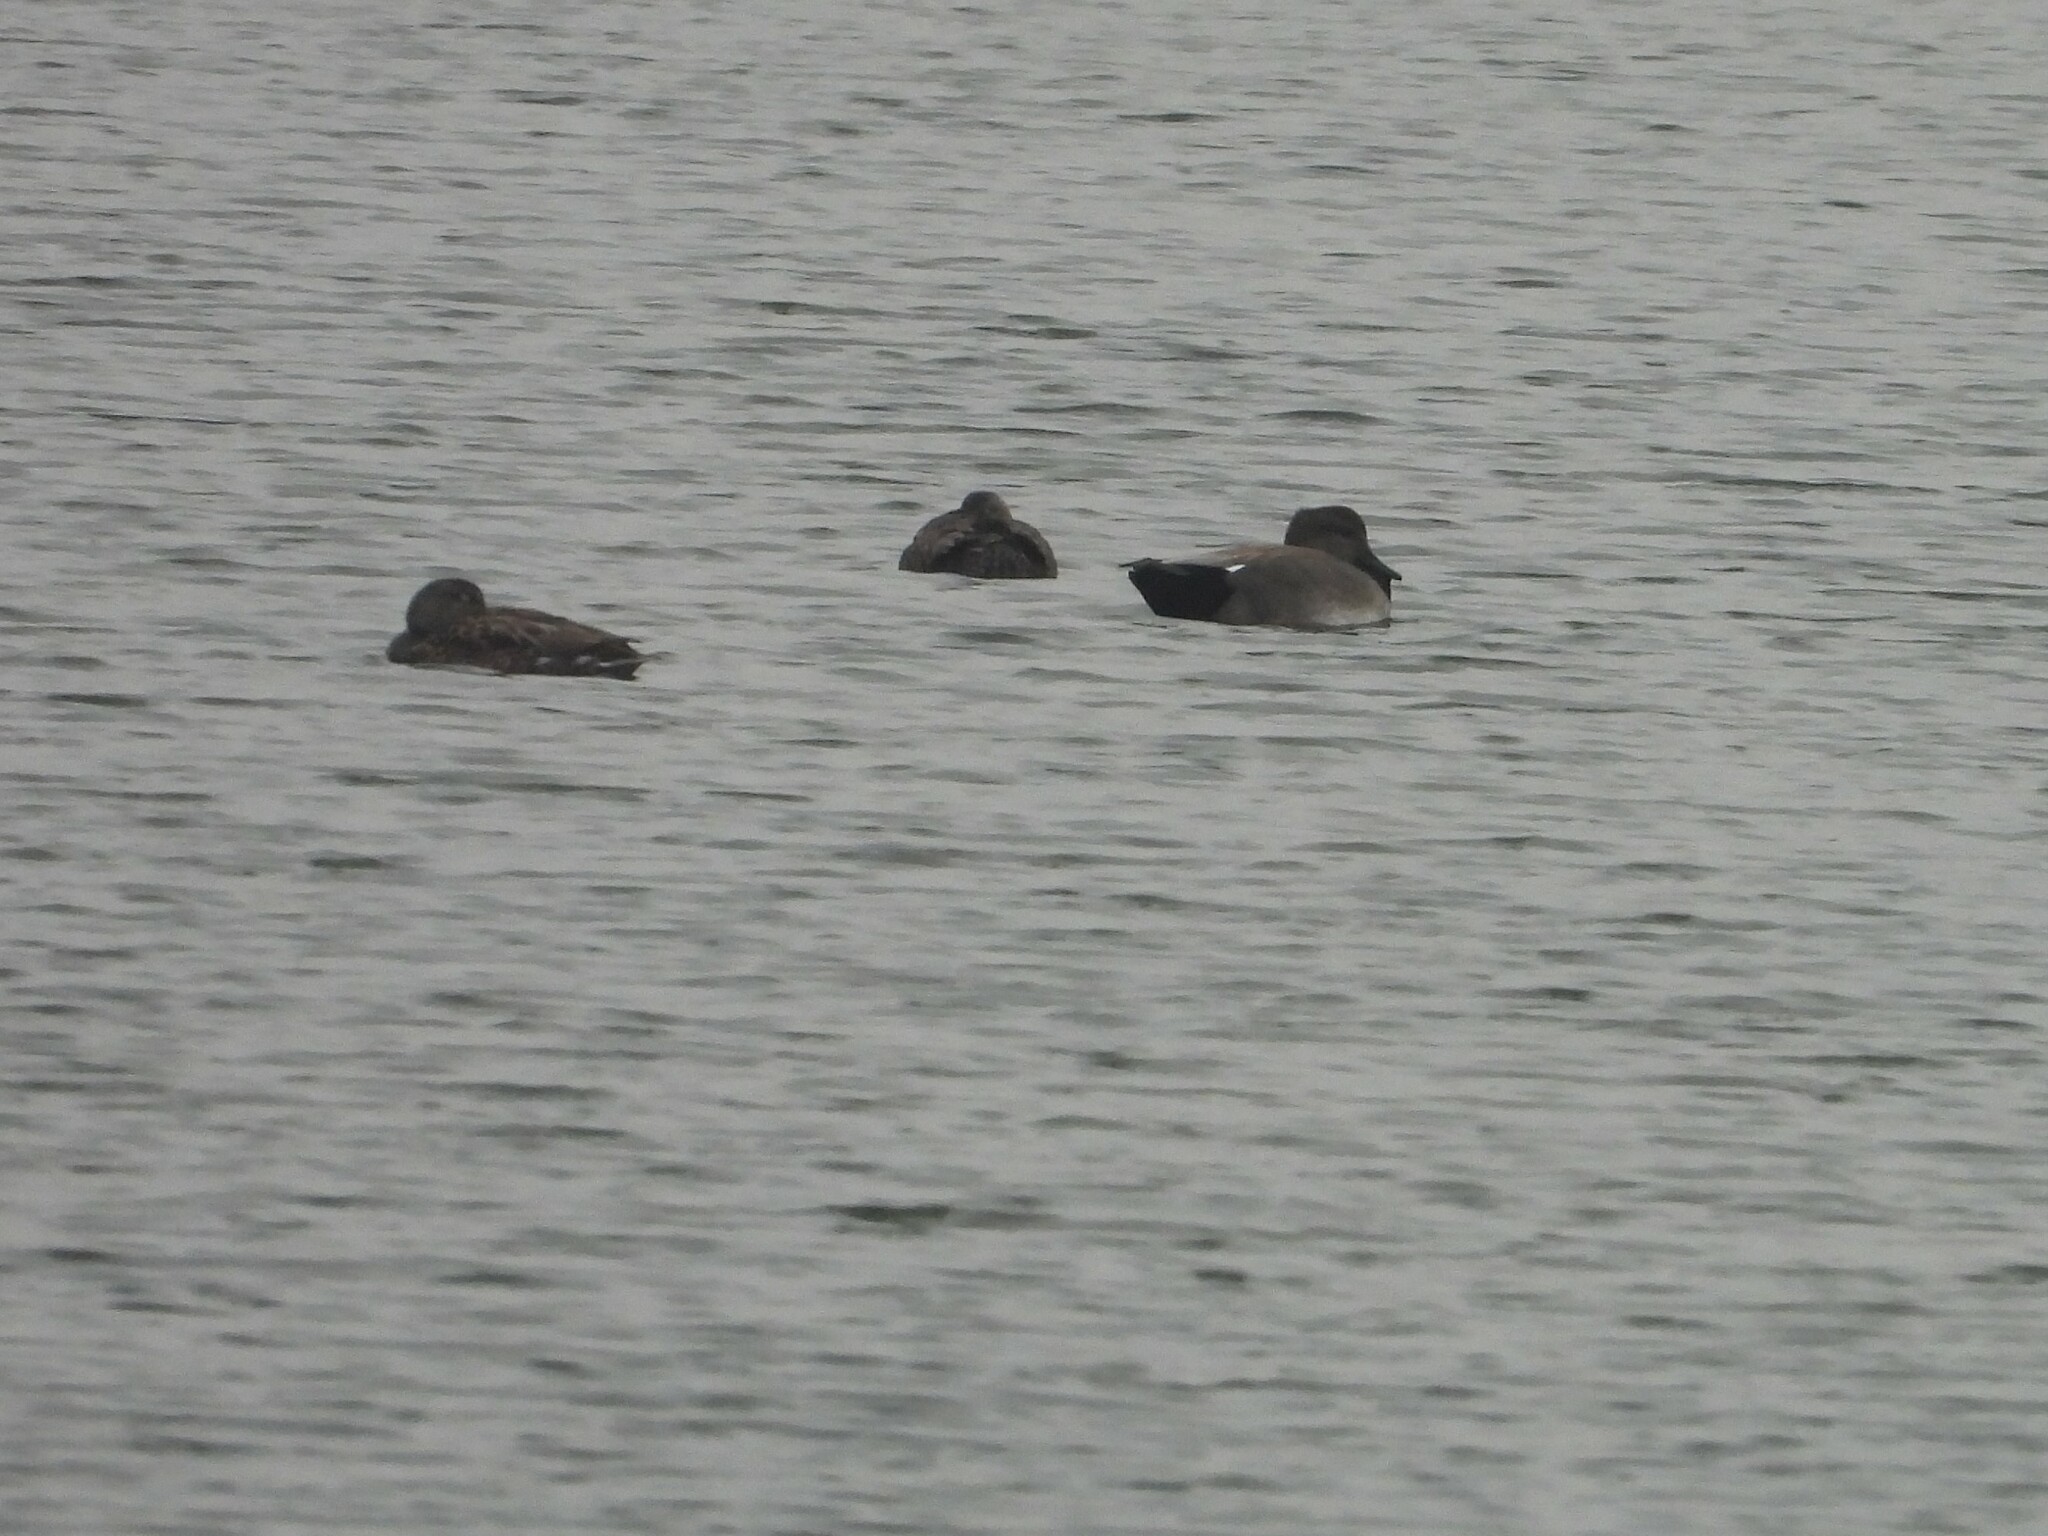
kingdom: Animalia
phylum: Chordata
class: Aves
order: Anseriformes
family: Anatidae
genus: Mareca
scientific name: Mareca strepera
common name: Gadwall
